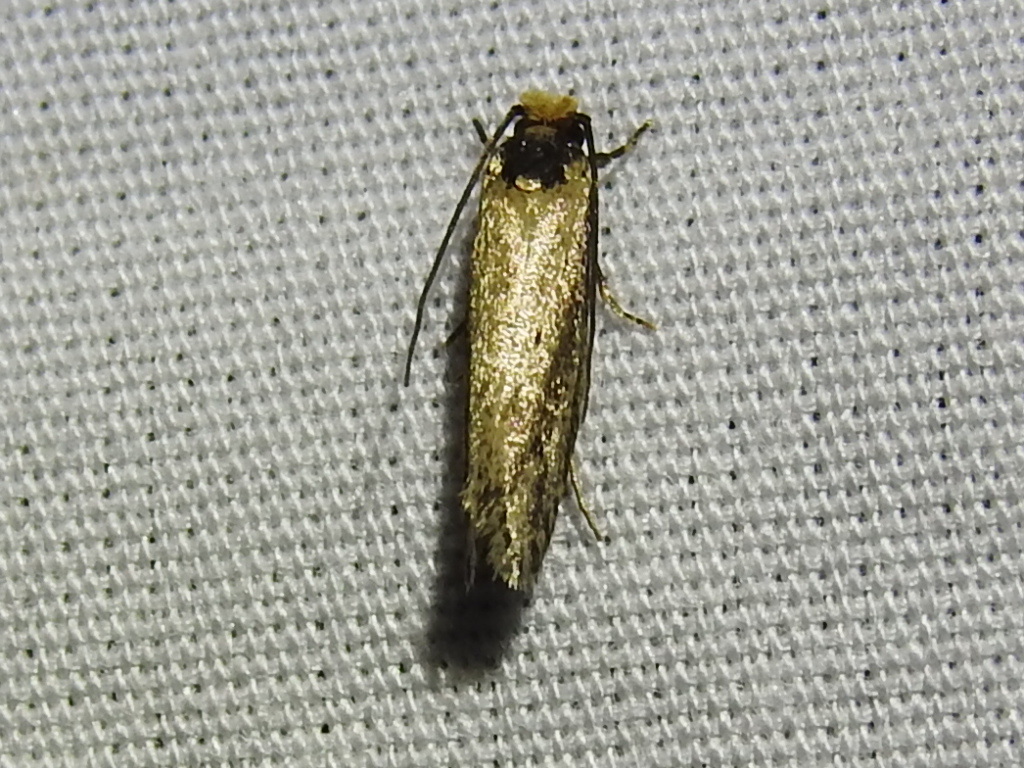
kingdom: Animalia
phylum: Arthropoda
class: Insecta
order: Lepidoptera
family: Tineidae
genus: Tinea
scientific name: Tinea apicimaculella
